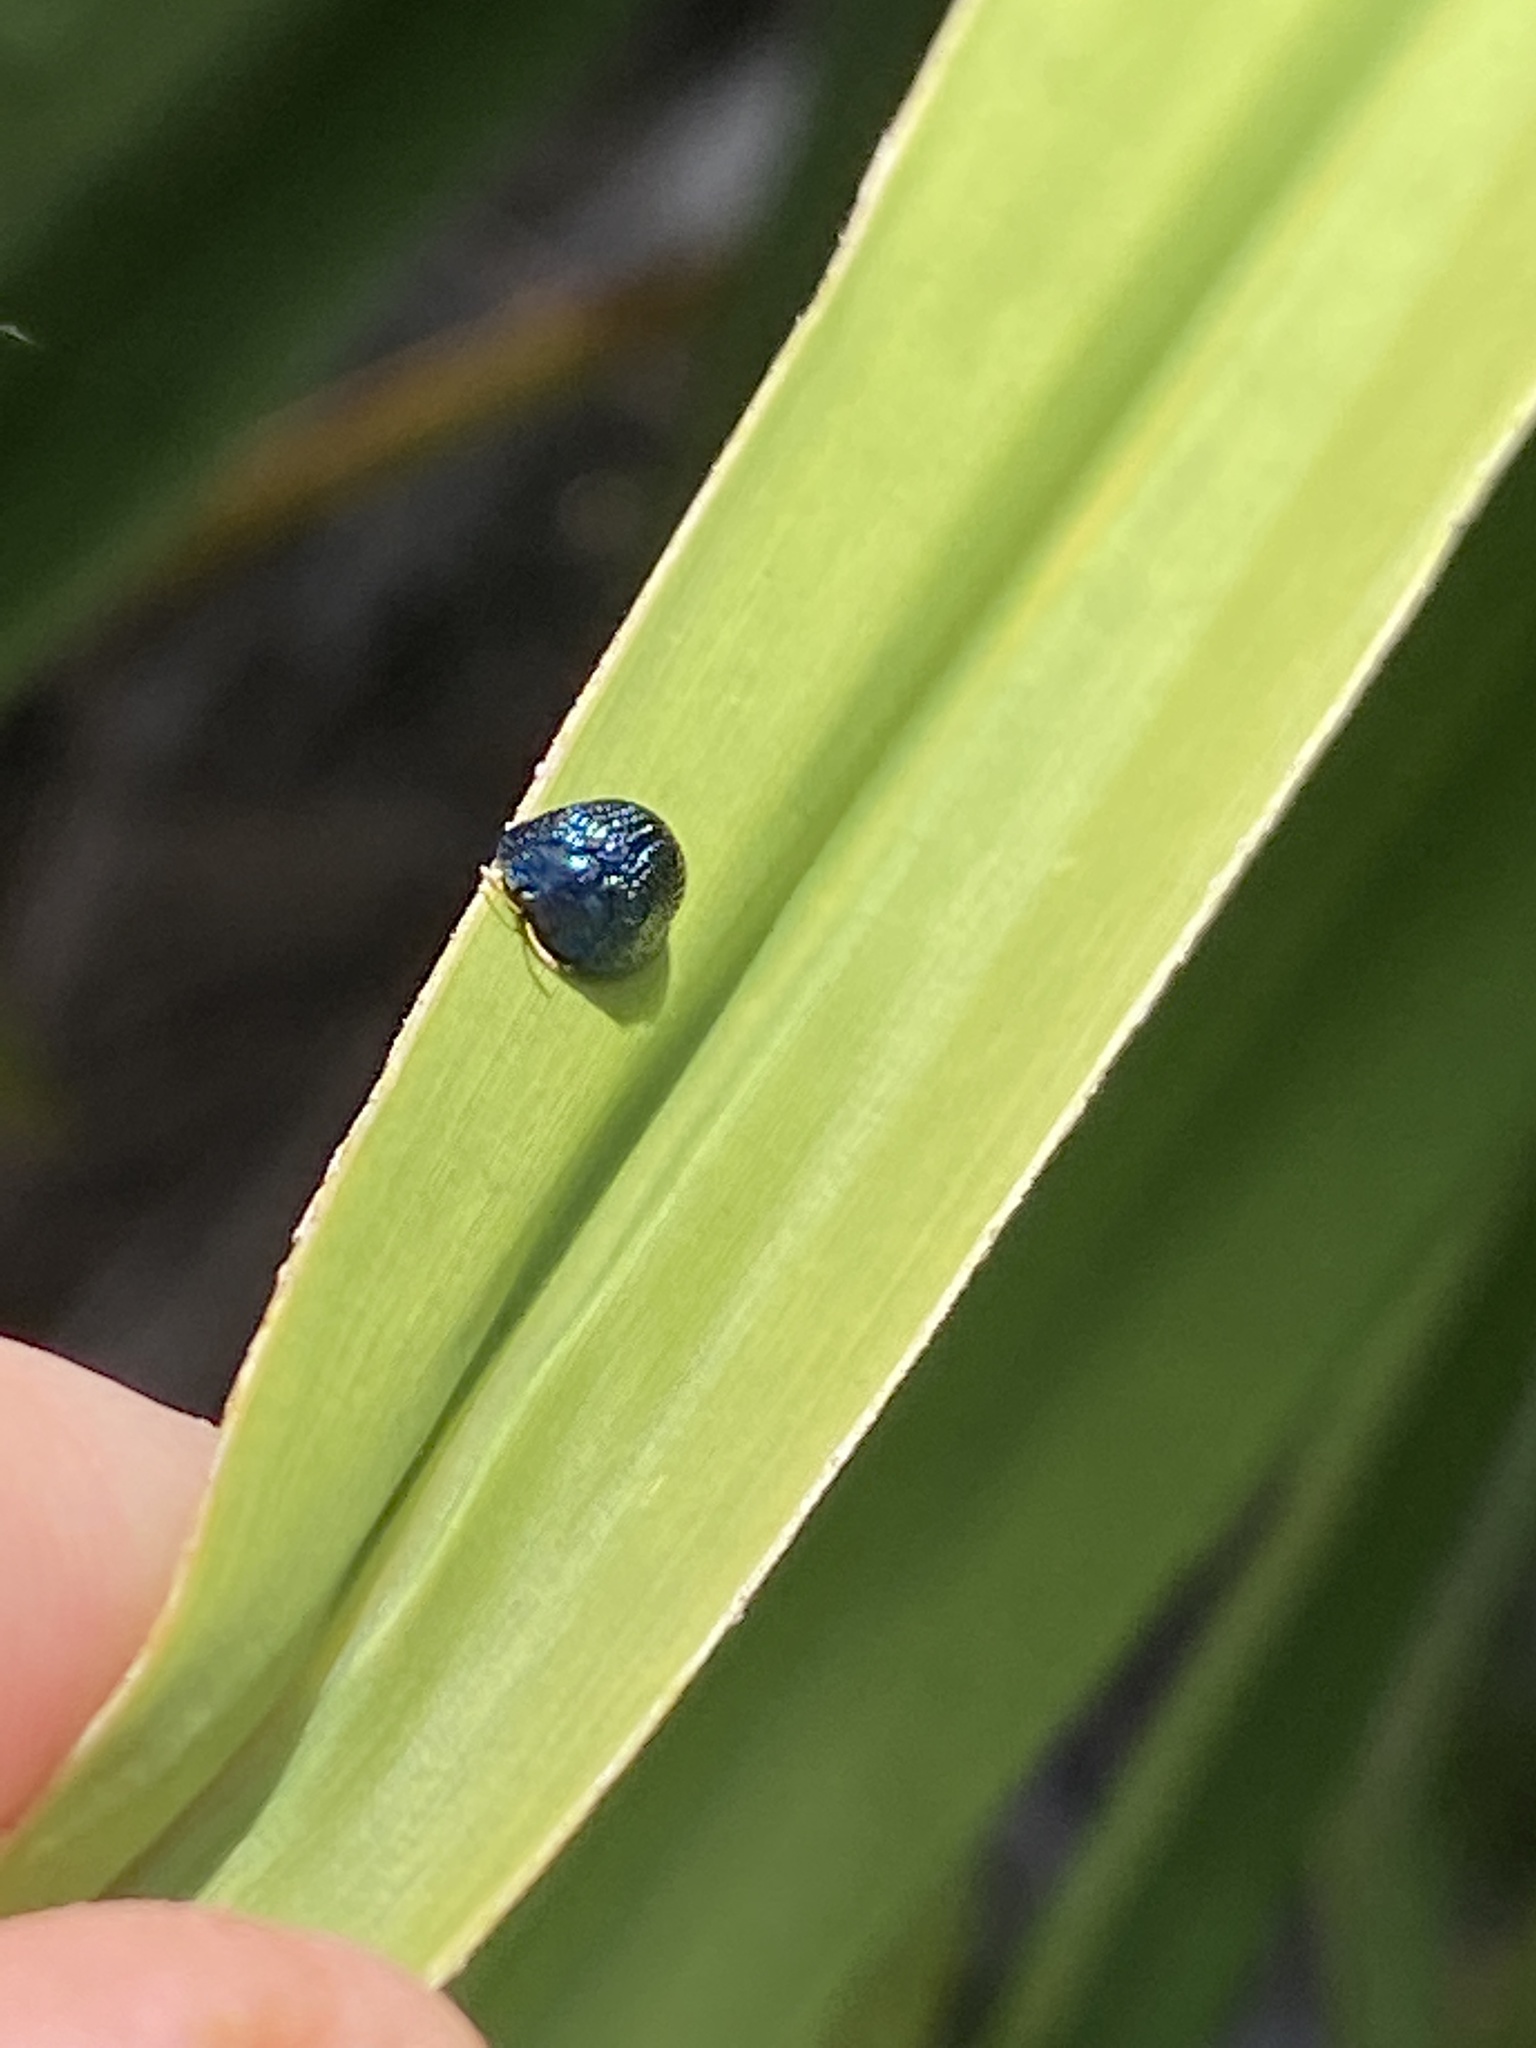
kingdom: Animalia
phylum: Arthropoda
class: Insecta
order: Coleoptera
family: Chrysomelidae
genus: Hemisphaerota
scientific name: Hemisphaerota cyanea
